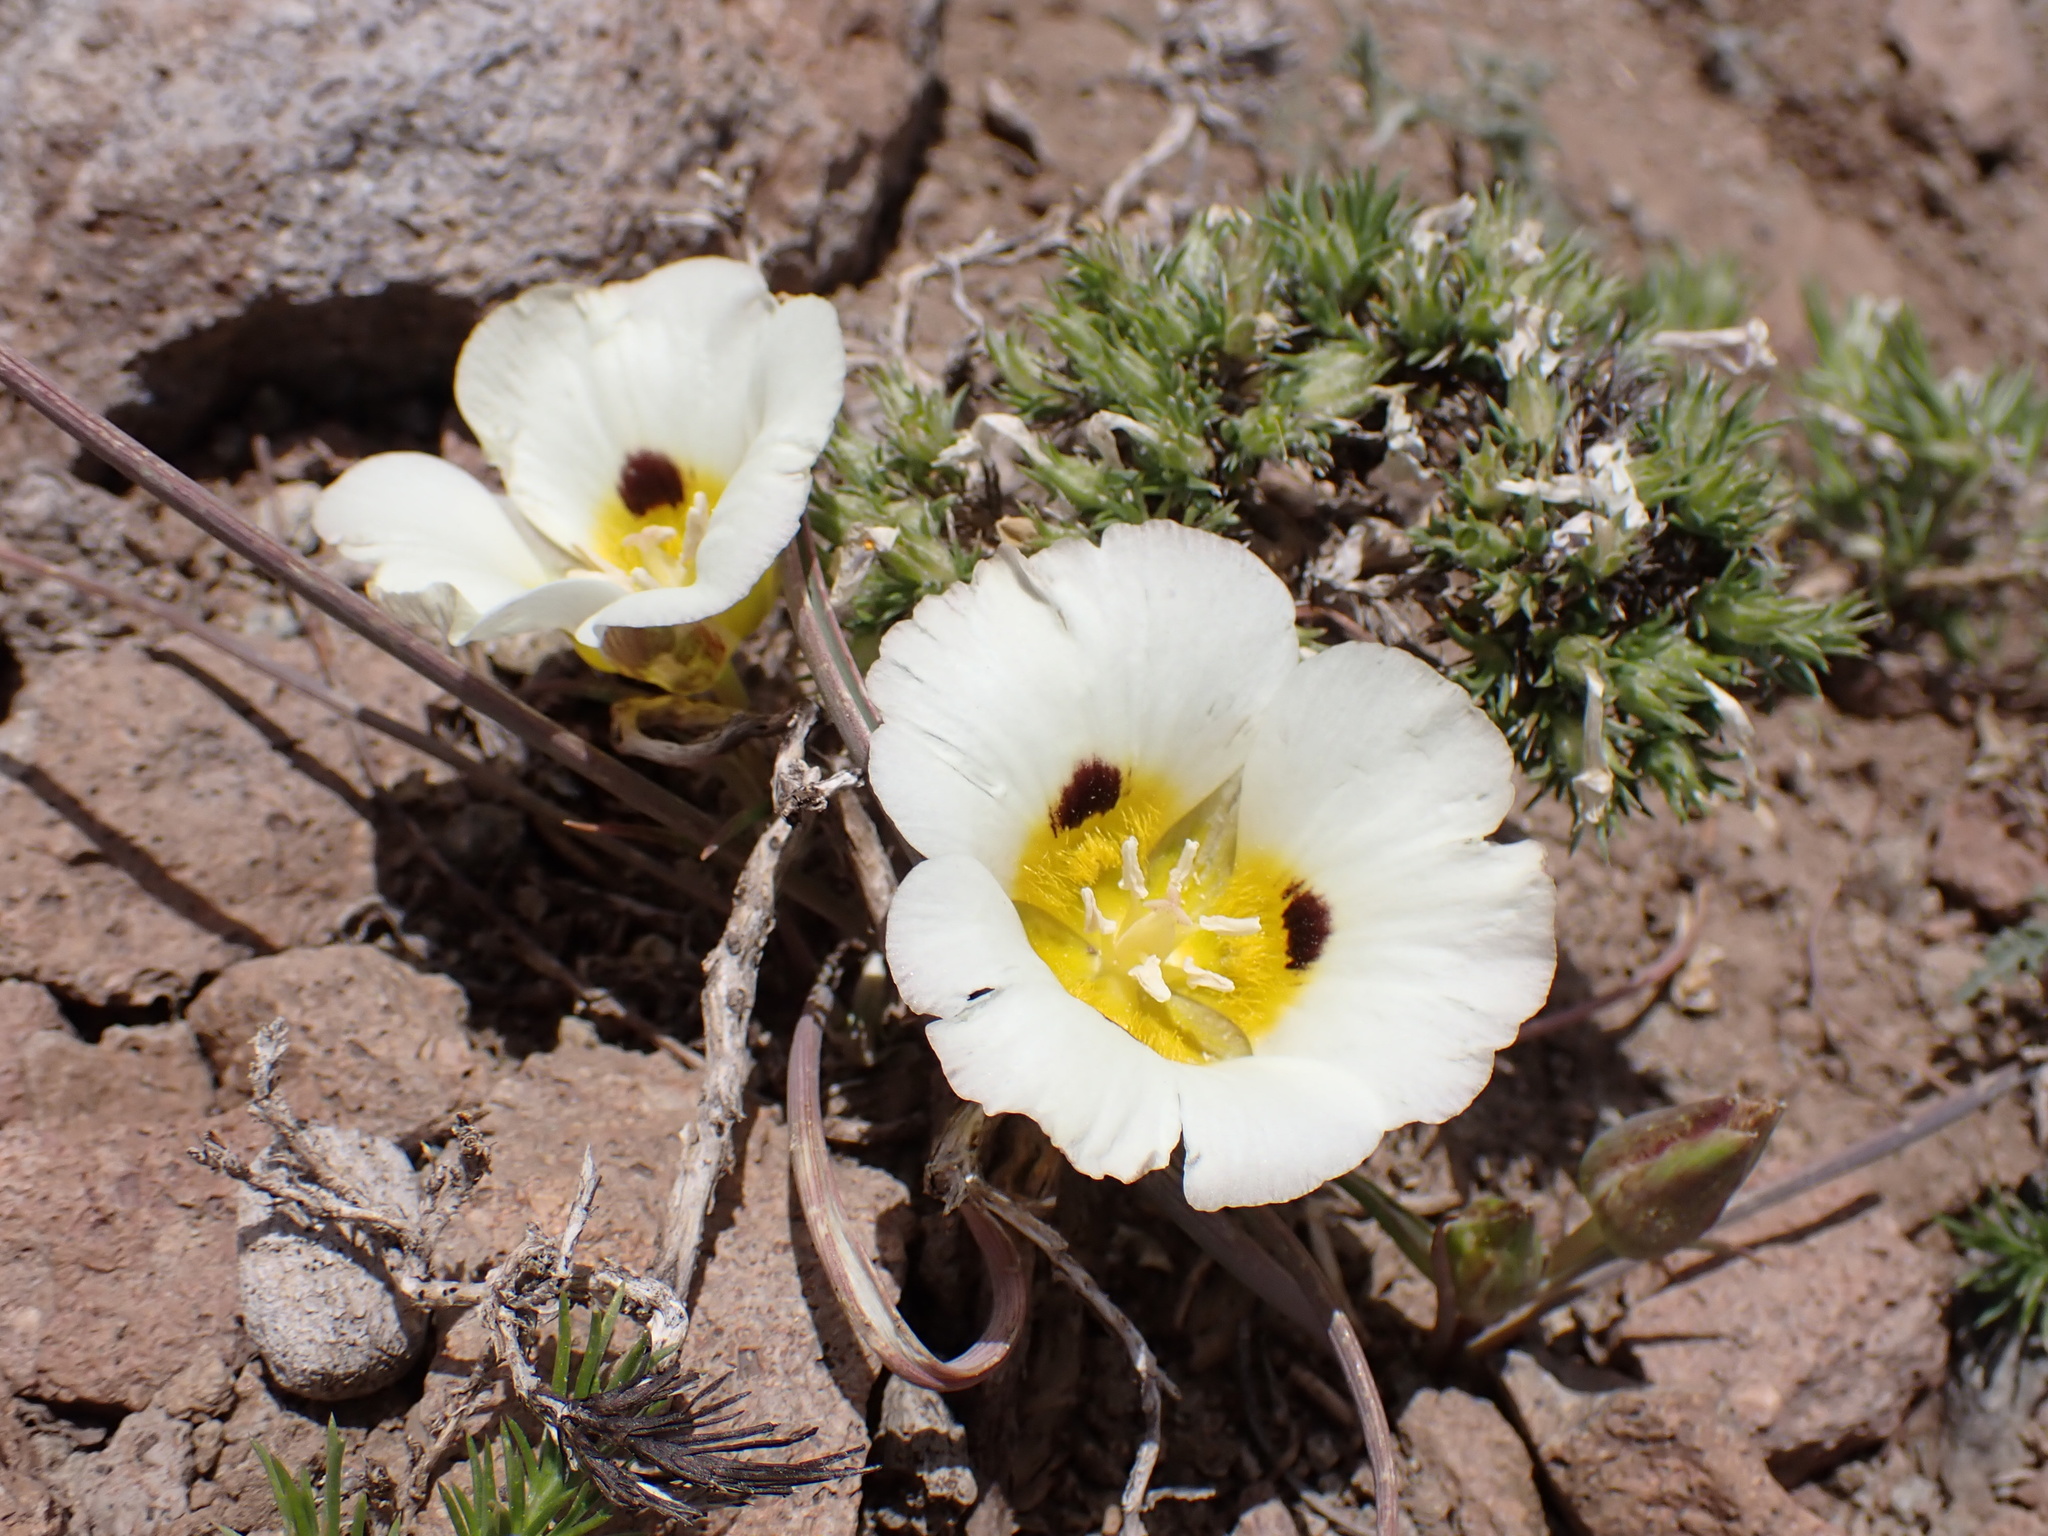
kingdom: Plantae
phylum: Tracheophyta
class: Liliopsida
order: Liliales
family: Liliaceae
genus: Calochortus
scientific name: Calochortus leichtlinii
